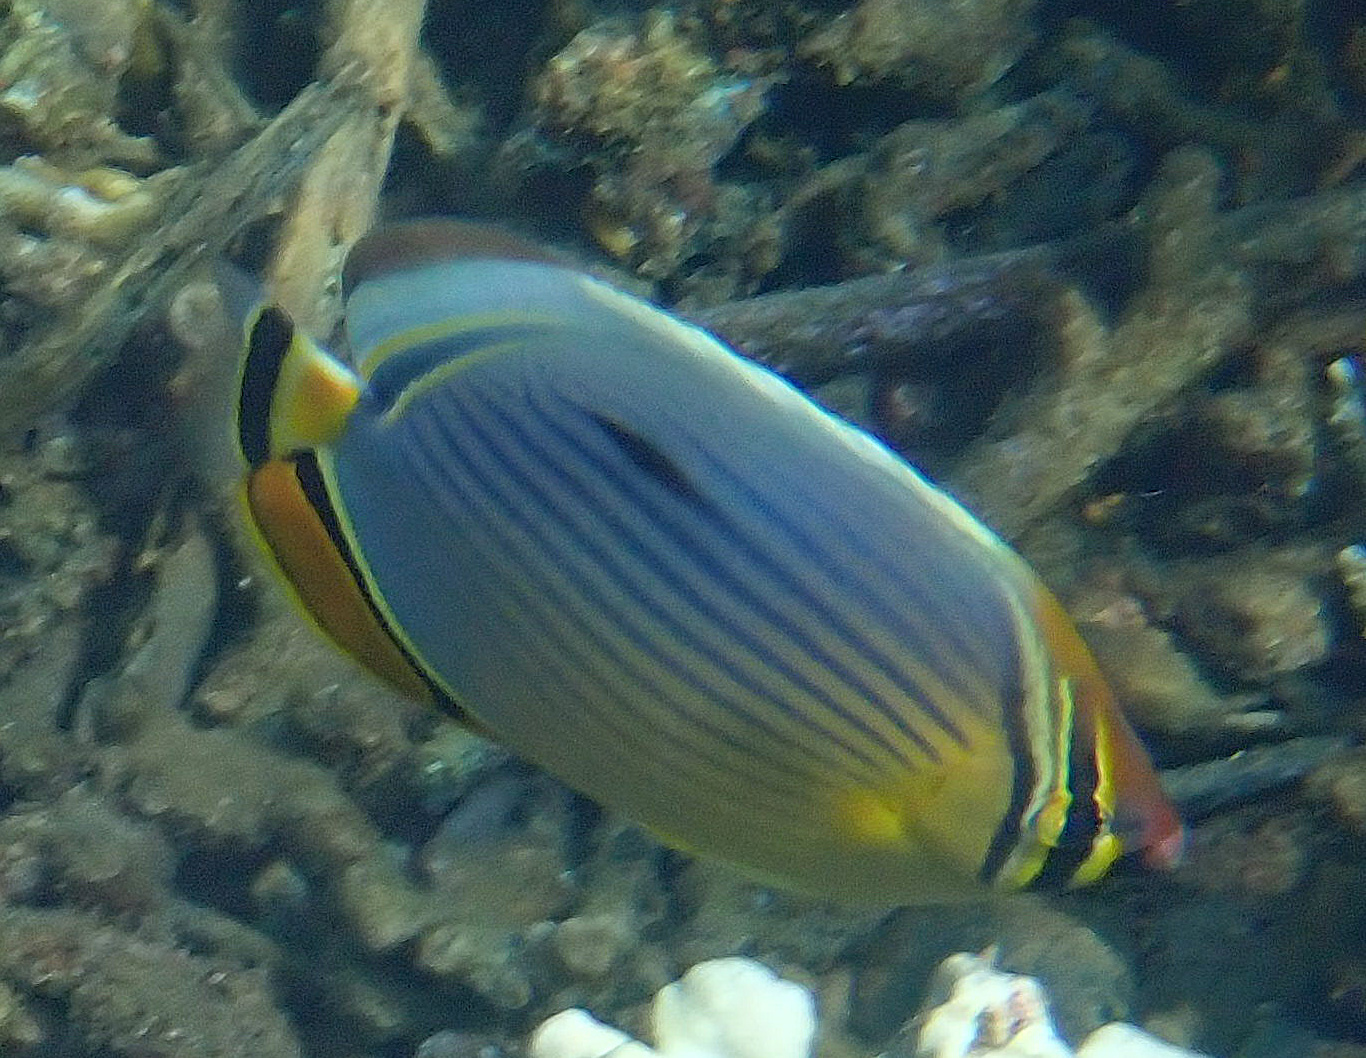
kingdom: Animalia
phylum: Chordata
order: Perciformes
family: Chaetodontidae
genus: Chaetodon
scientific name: Chaetodon trifasciatus
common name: Redfin butterflyfish
